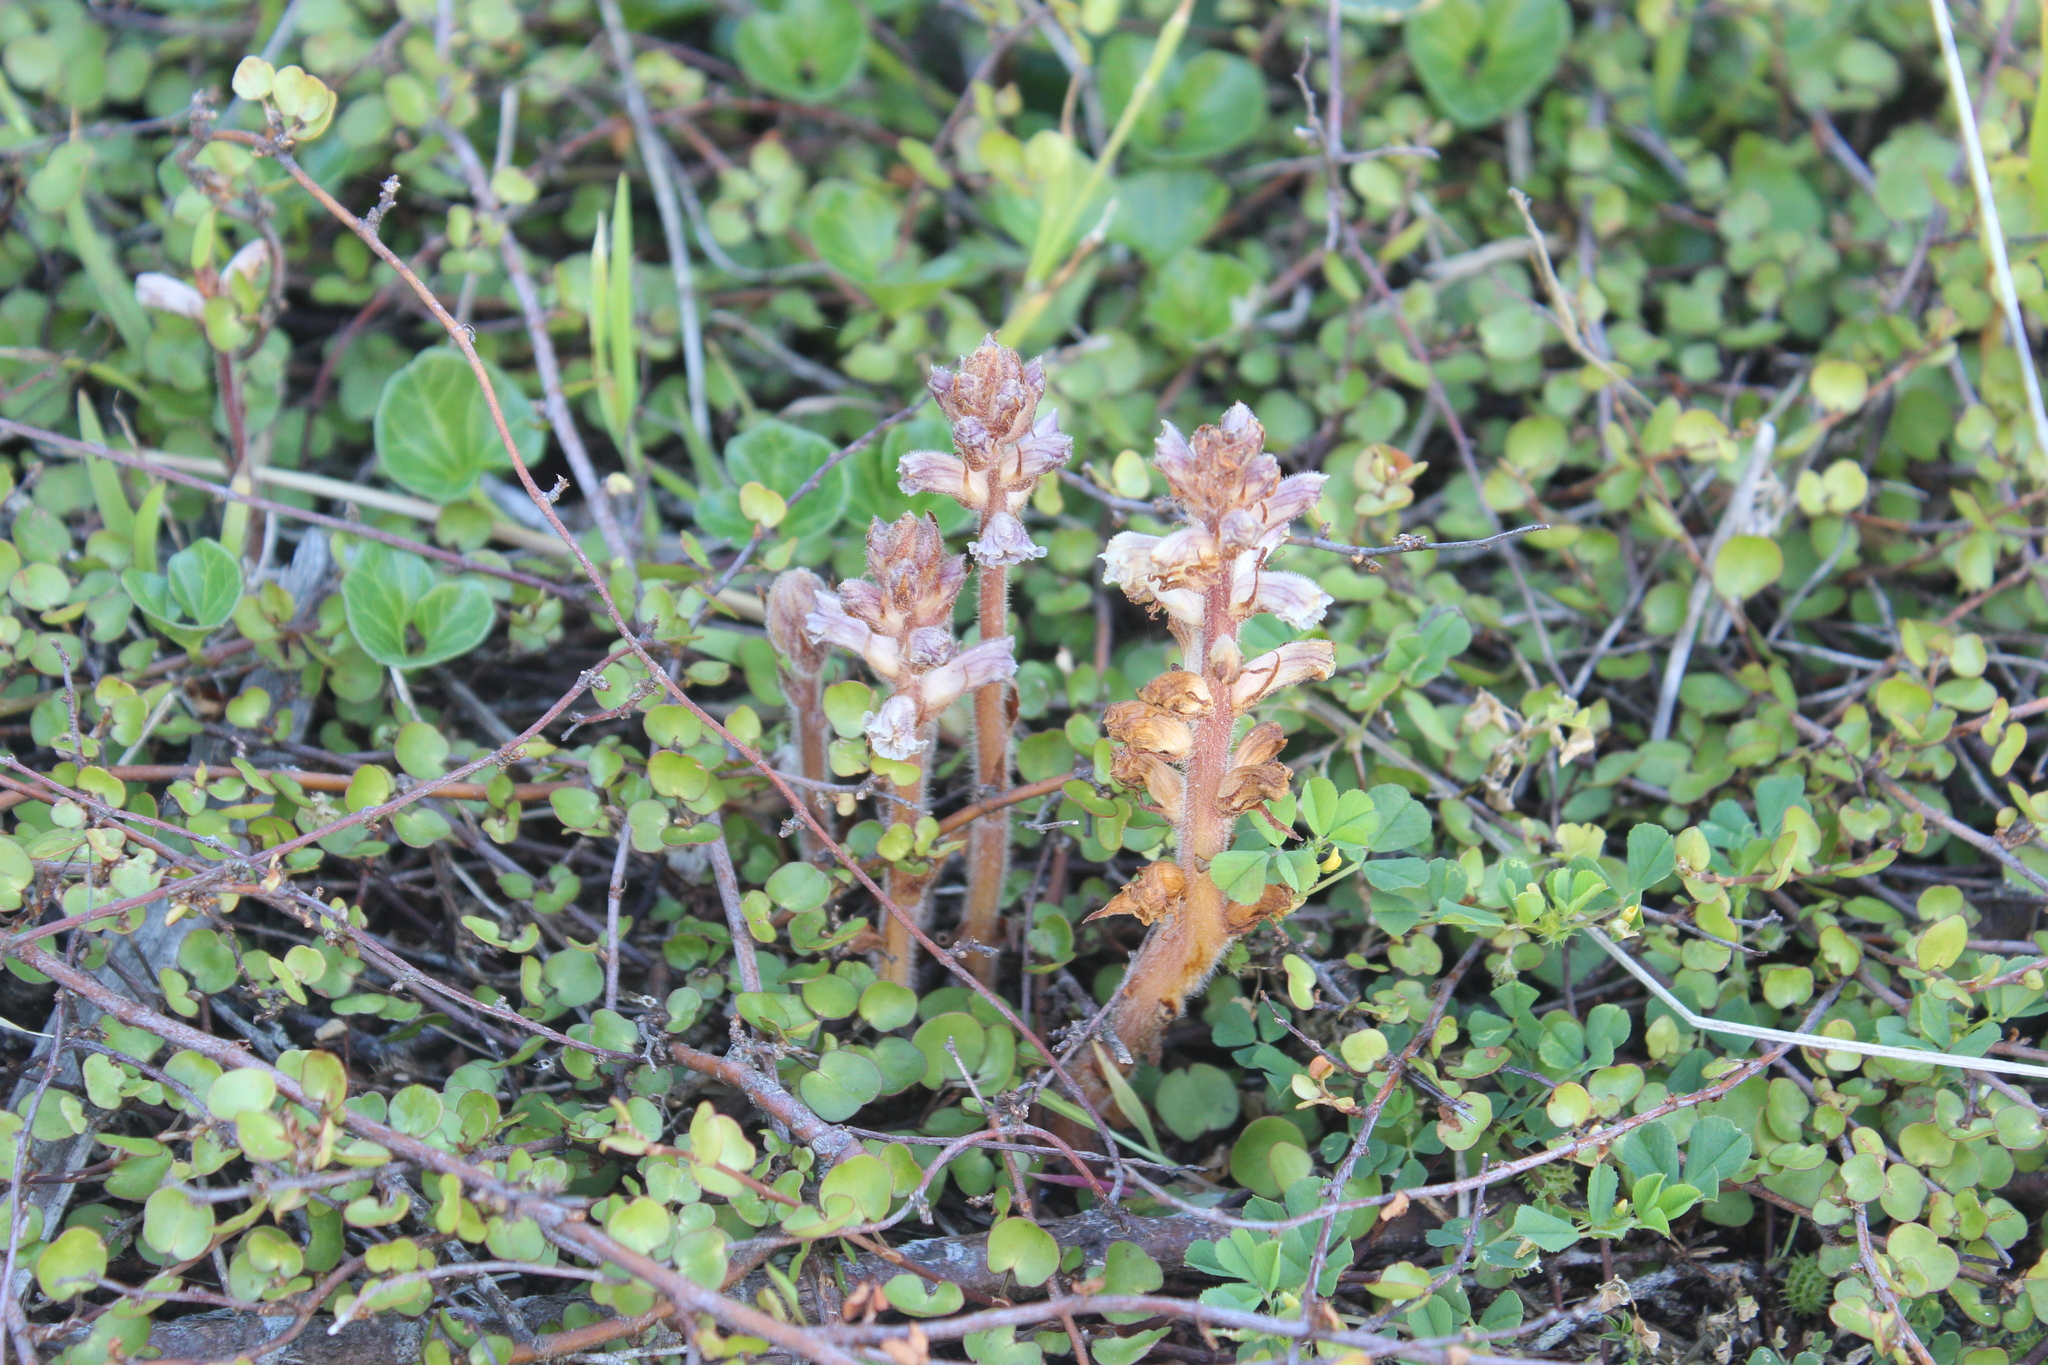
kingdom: Plantae
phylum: Tracheophyta
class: Magnoliopsida
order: Lamiales
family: Orobanchaceae
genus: Orobanche
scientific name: Orobanche minor
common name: Common broomrape
